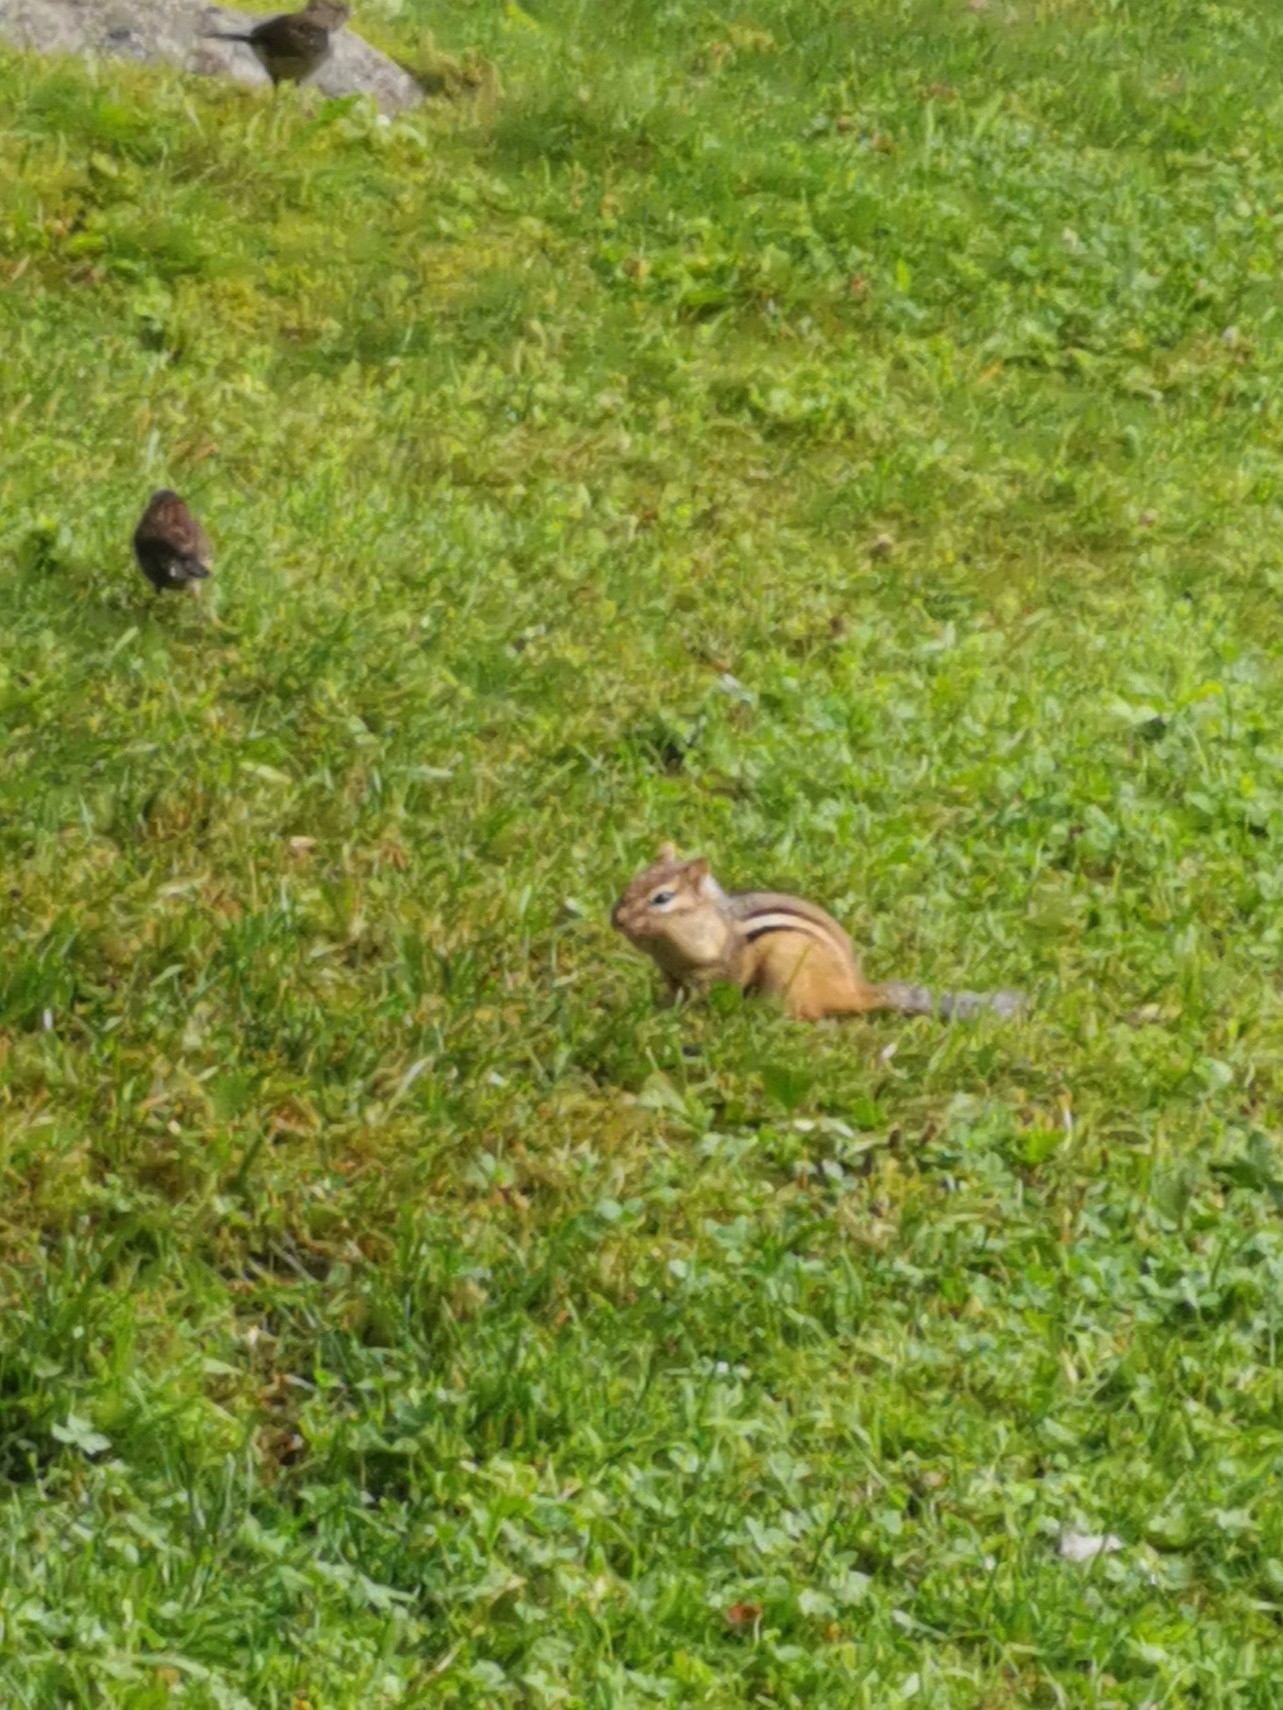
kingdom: Animalia
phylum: Chordata
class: Mammalia
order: Rodentia
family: Sciuridae
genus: Tamias
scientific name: Tamias striatus
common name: Eastern chipmunk
